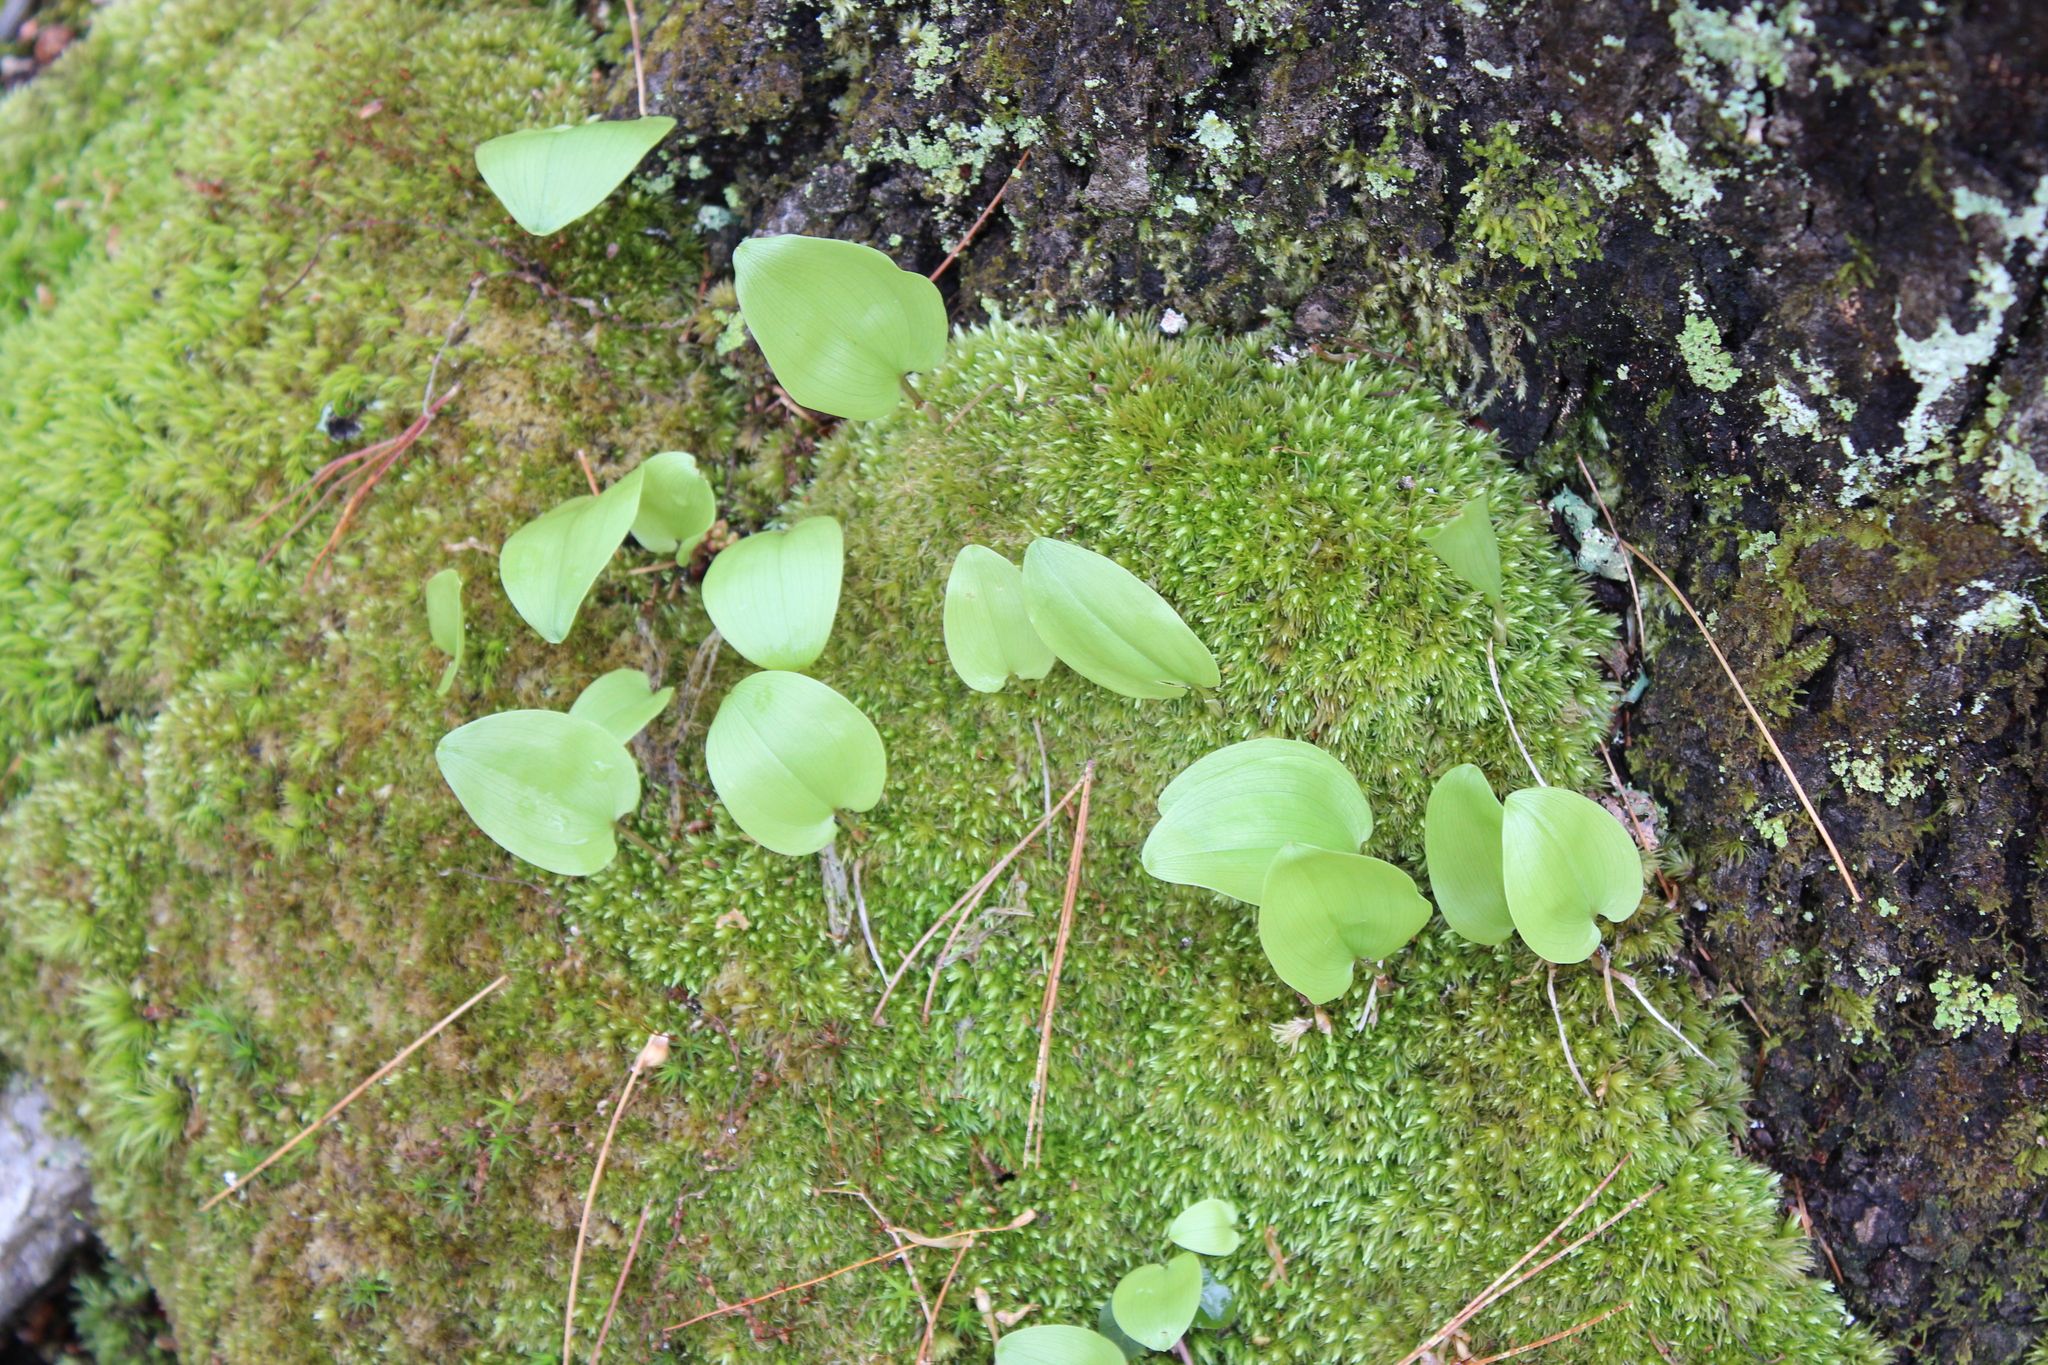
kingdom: Plantae
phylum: Tracheophyta
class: Liliopsida
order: Asparagales
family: Asparagaceae
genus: Maianthemum
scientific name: Maianthemum canadense
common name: False lily-of-the-valley
